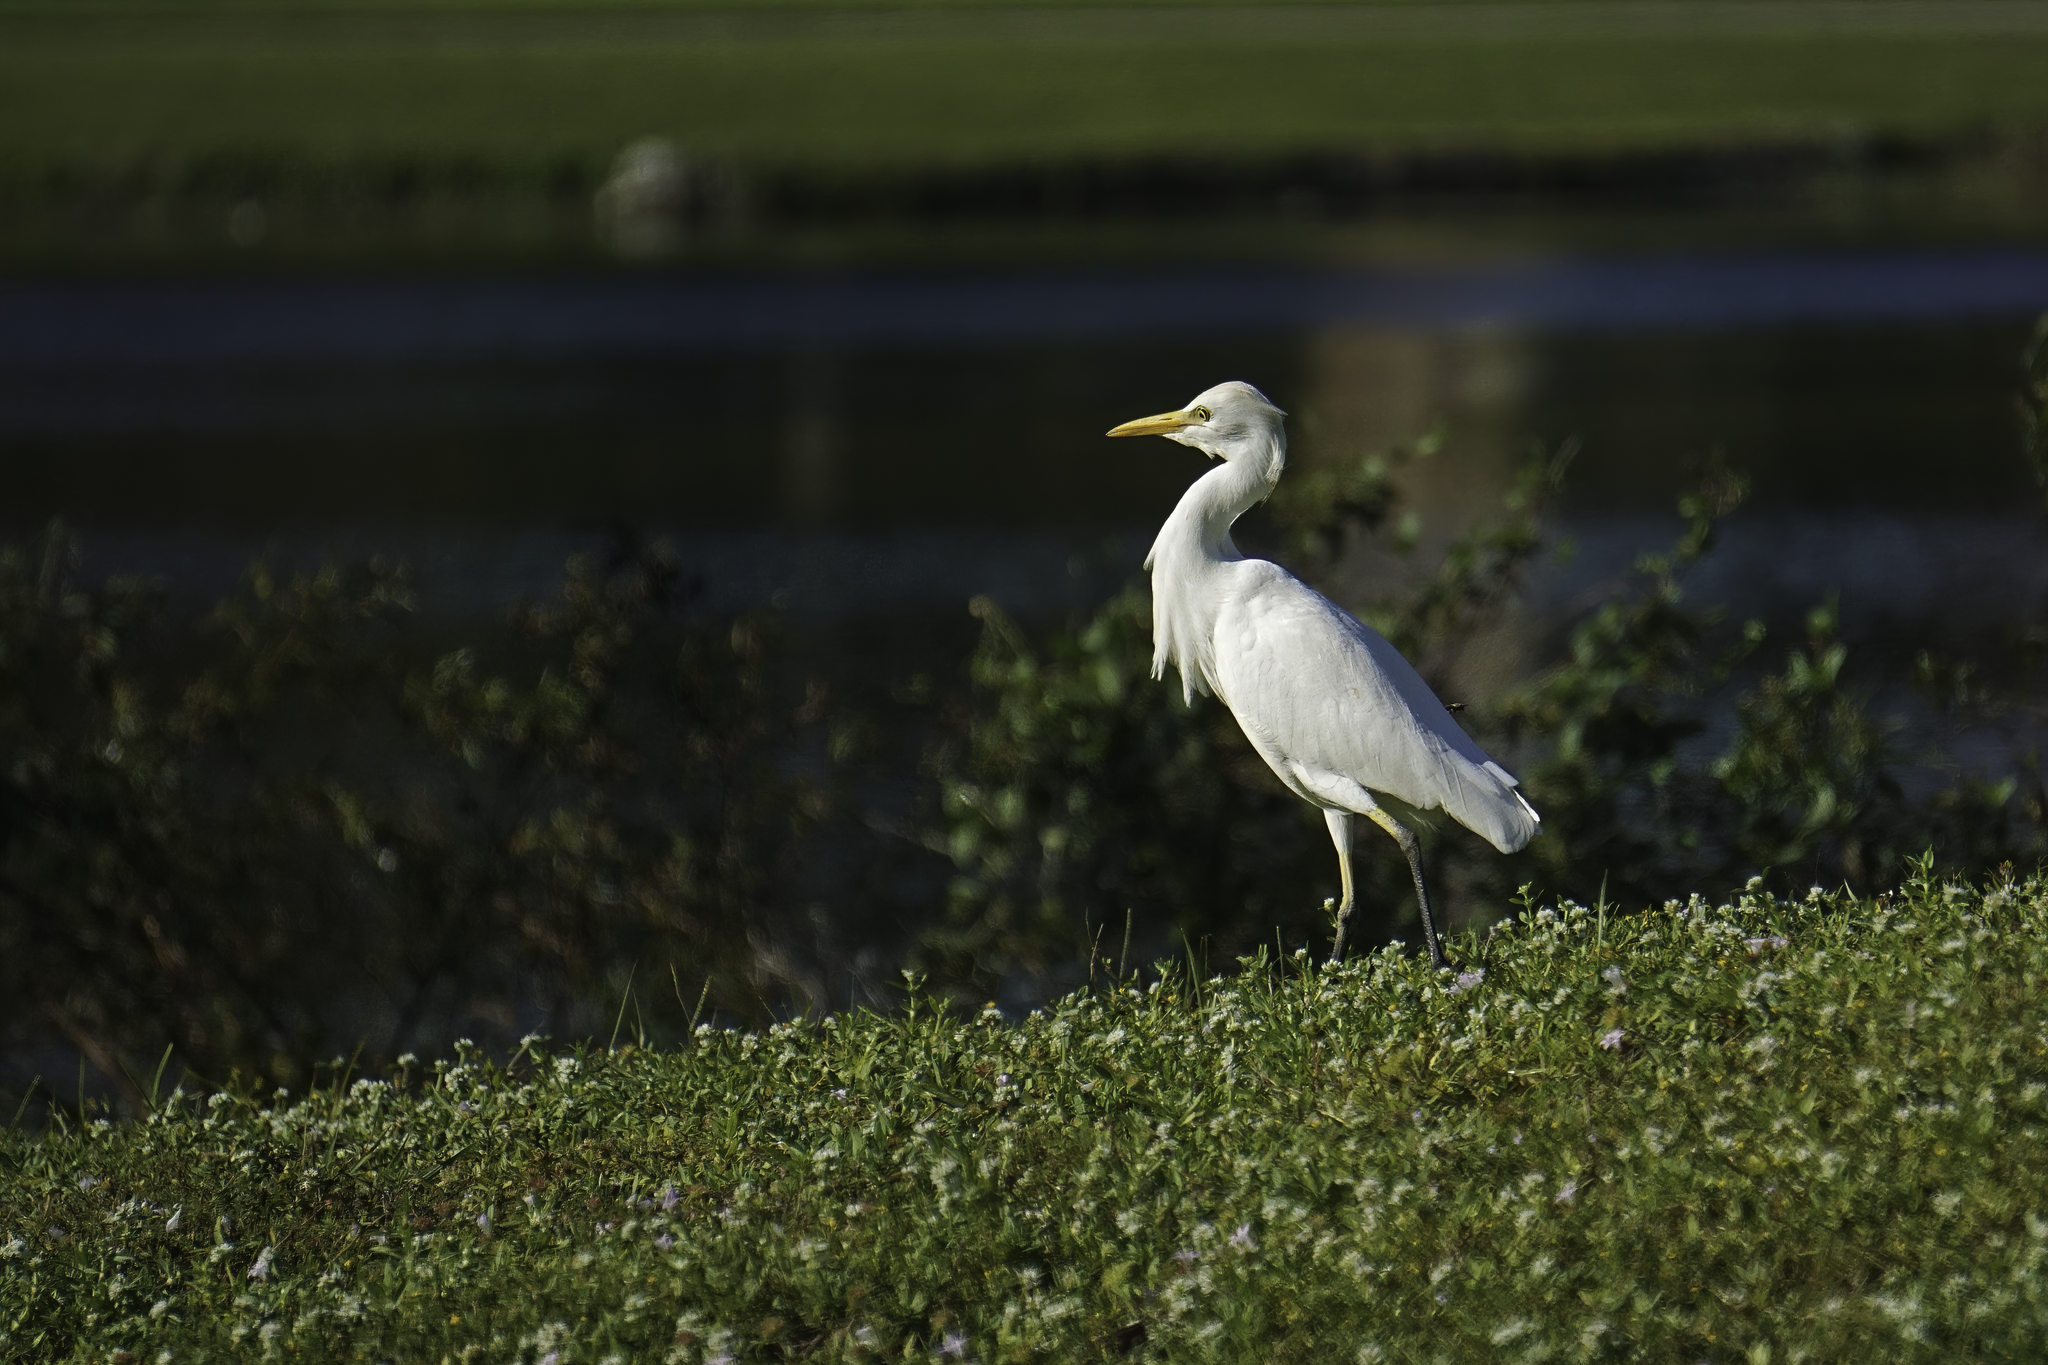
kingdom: Animalia
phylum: Chordata
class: Aves
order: Pelecaniformes
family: Ardeidae
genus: Bubulcus
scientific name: Bubulcus ibis
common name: Cattle egret
